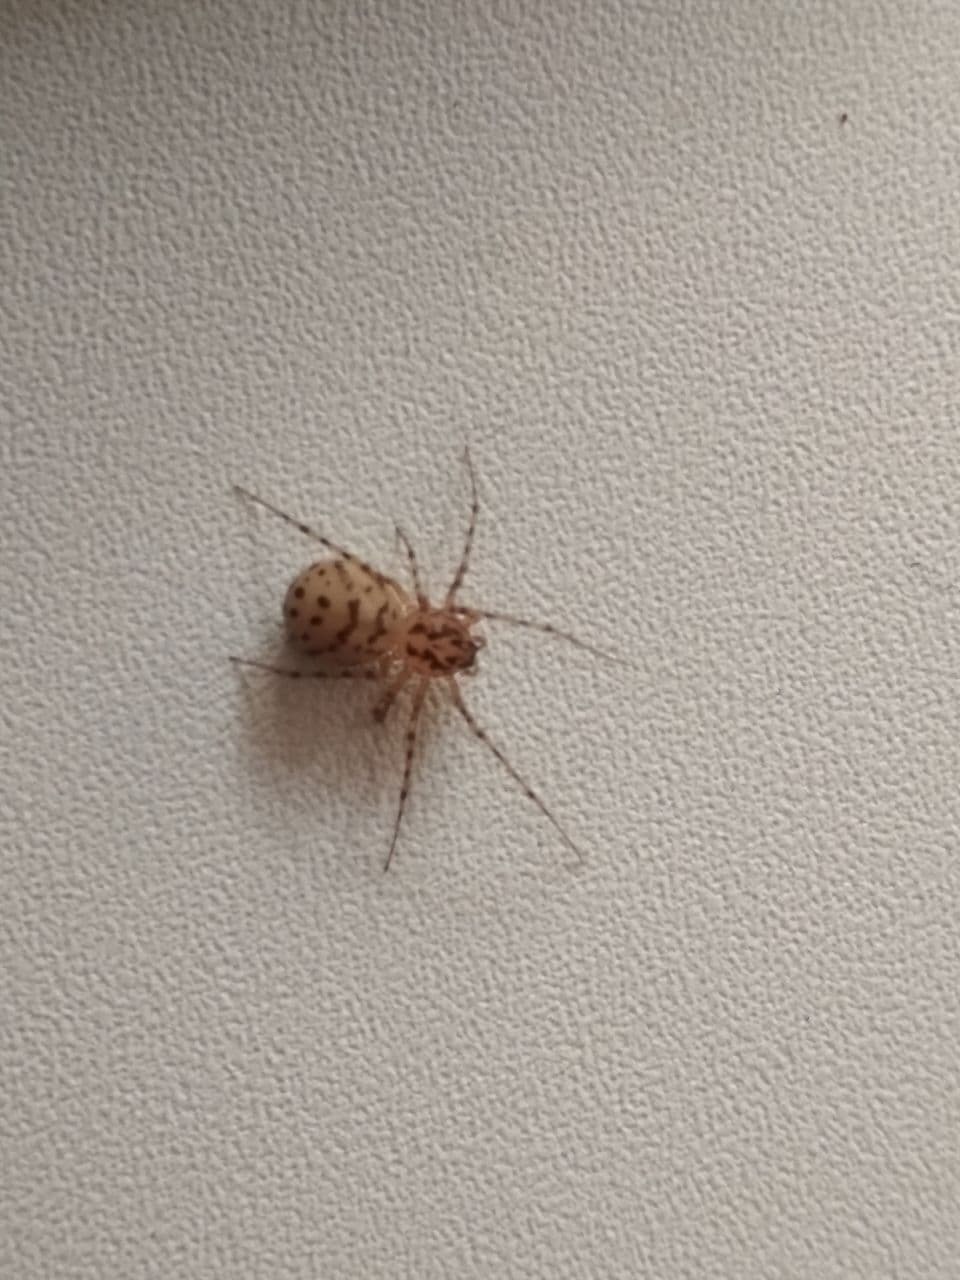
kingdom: Animalia
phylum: Arthropoda
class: Arachnida
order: Araneae
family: Scytodidae
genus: Scytodes
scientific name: Scytodes thoracica
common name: Spitting spider
